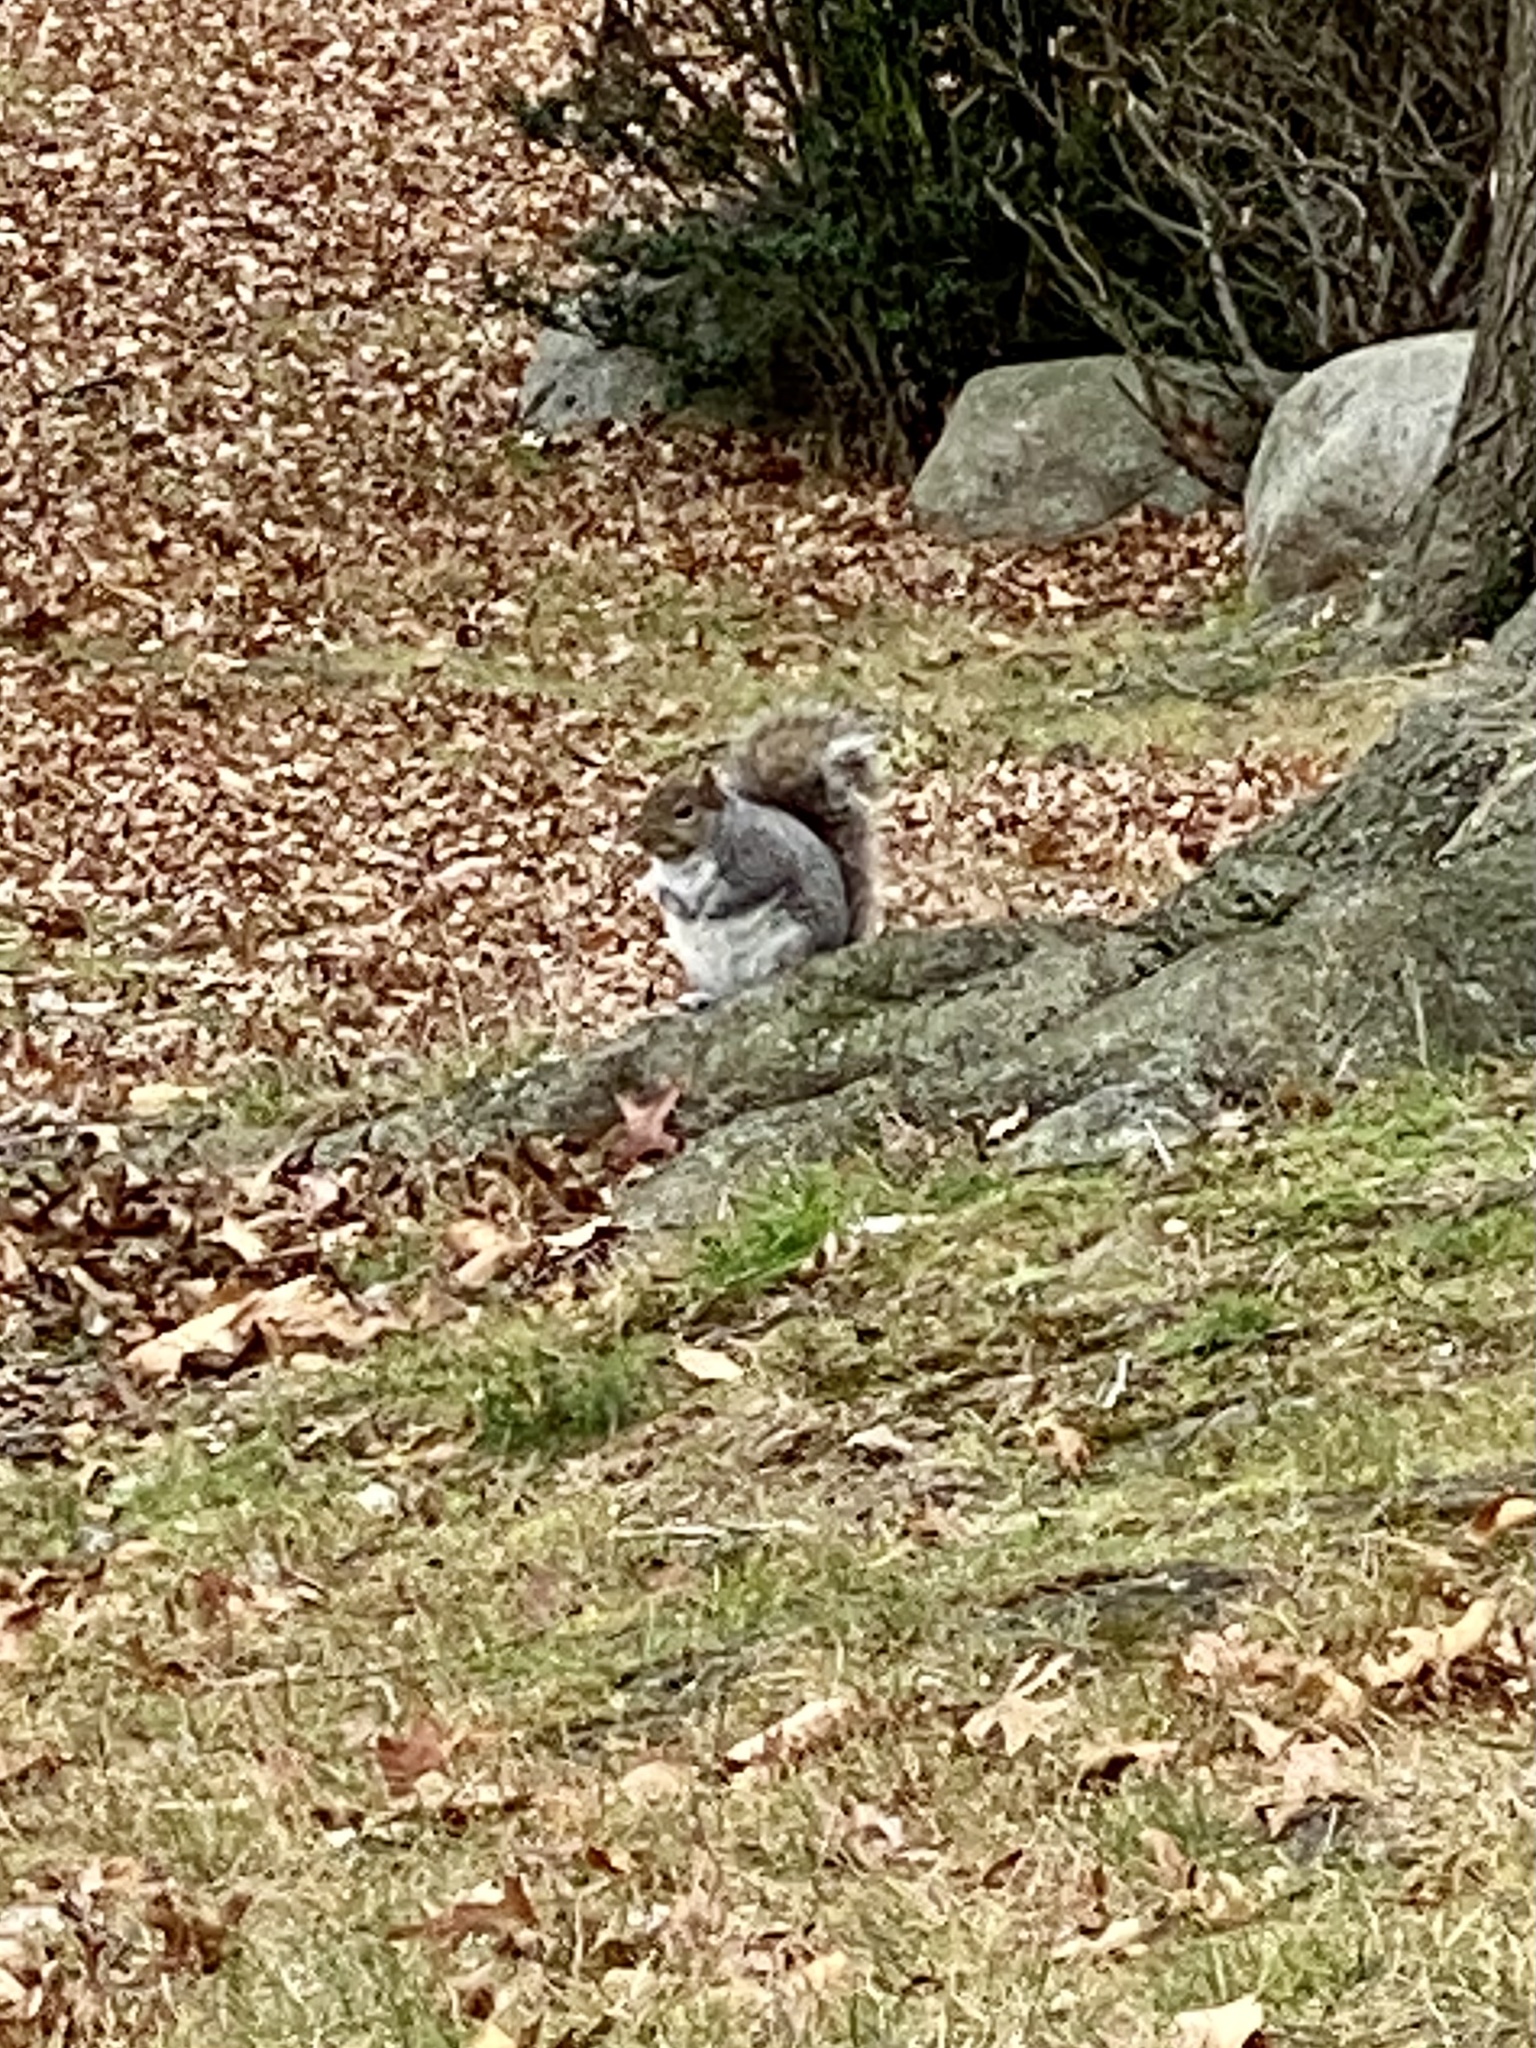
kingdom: Animalia
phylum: Chordata
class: Mammalia
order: Rodentia
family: Sciuridae
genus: Sciurus
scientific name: Sciurus carolinensis
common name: Eastern gray squirrel
